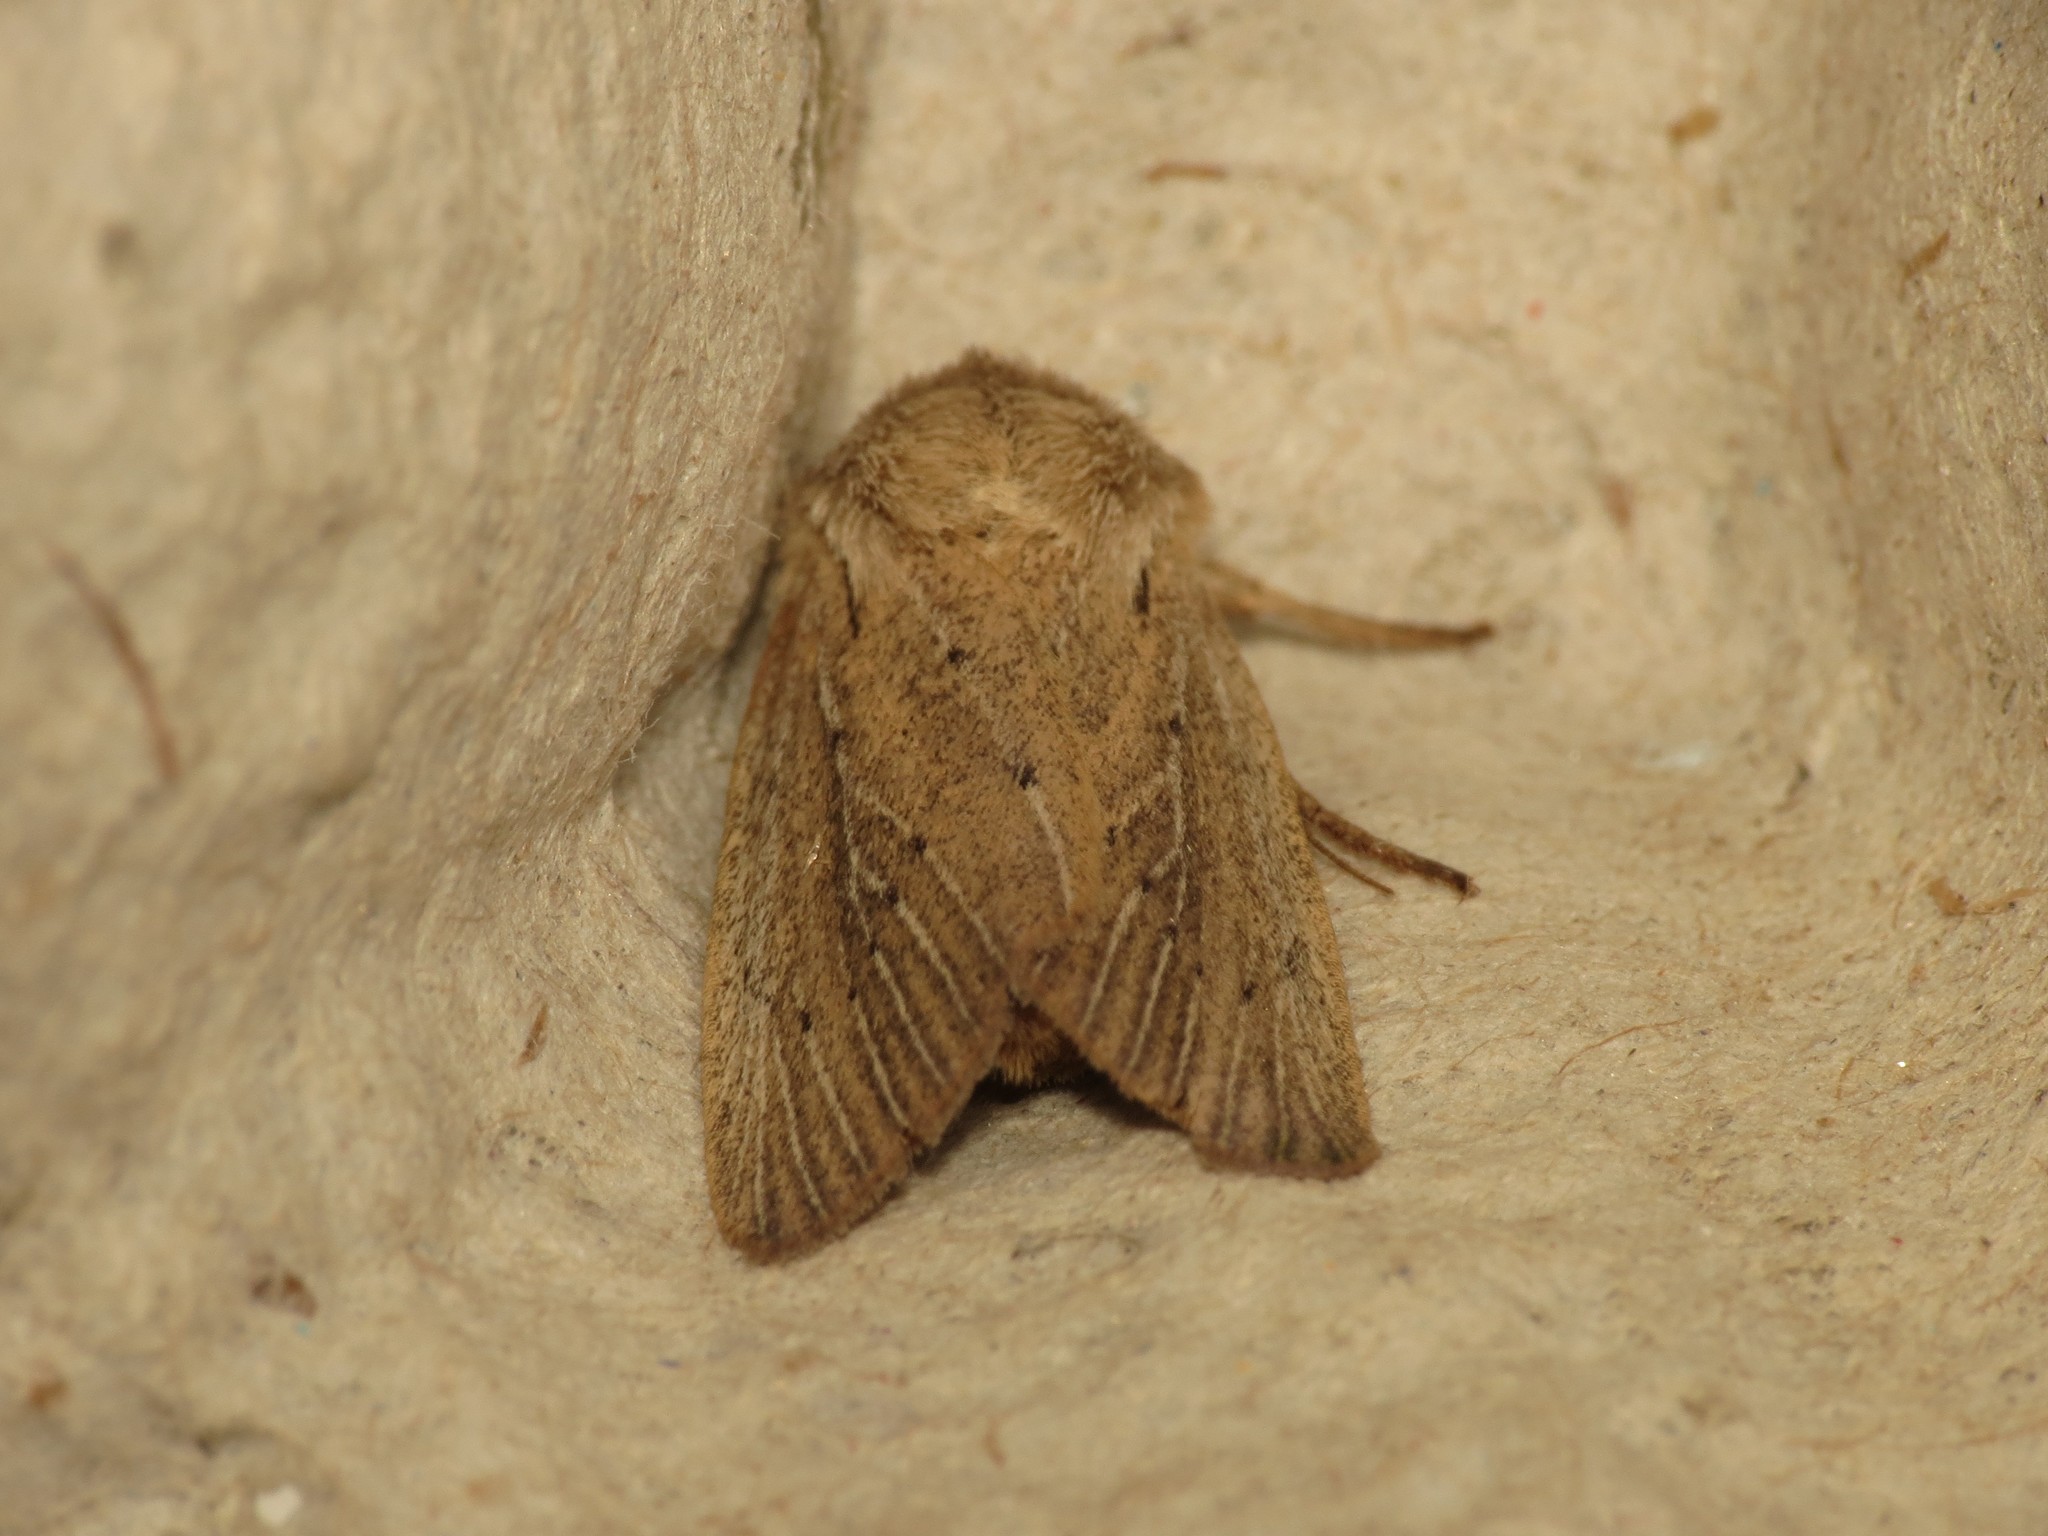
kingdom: Animalia
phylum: Arthropoda
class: Insecta
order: Lepidoptera
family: Noctuidae
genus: Protarchanara
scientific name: Protarchanara brevilinea
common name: Fenn's wainscot
